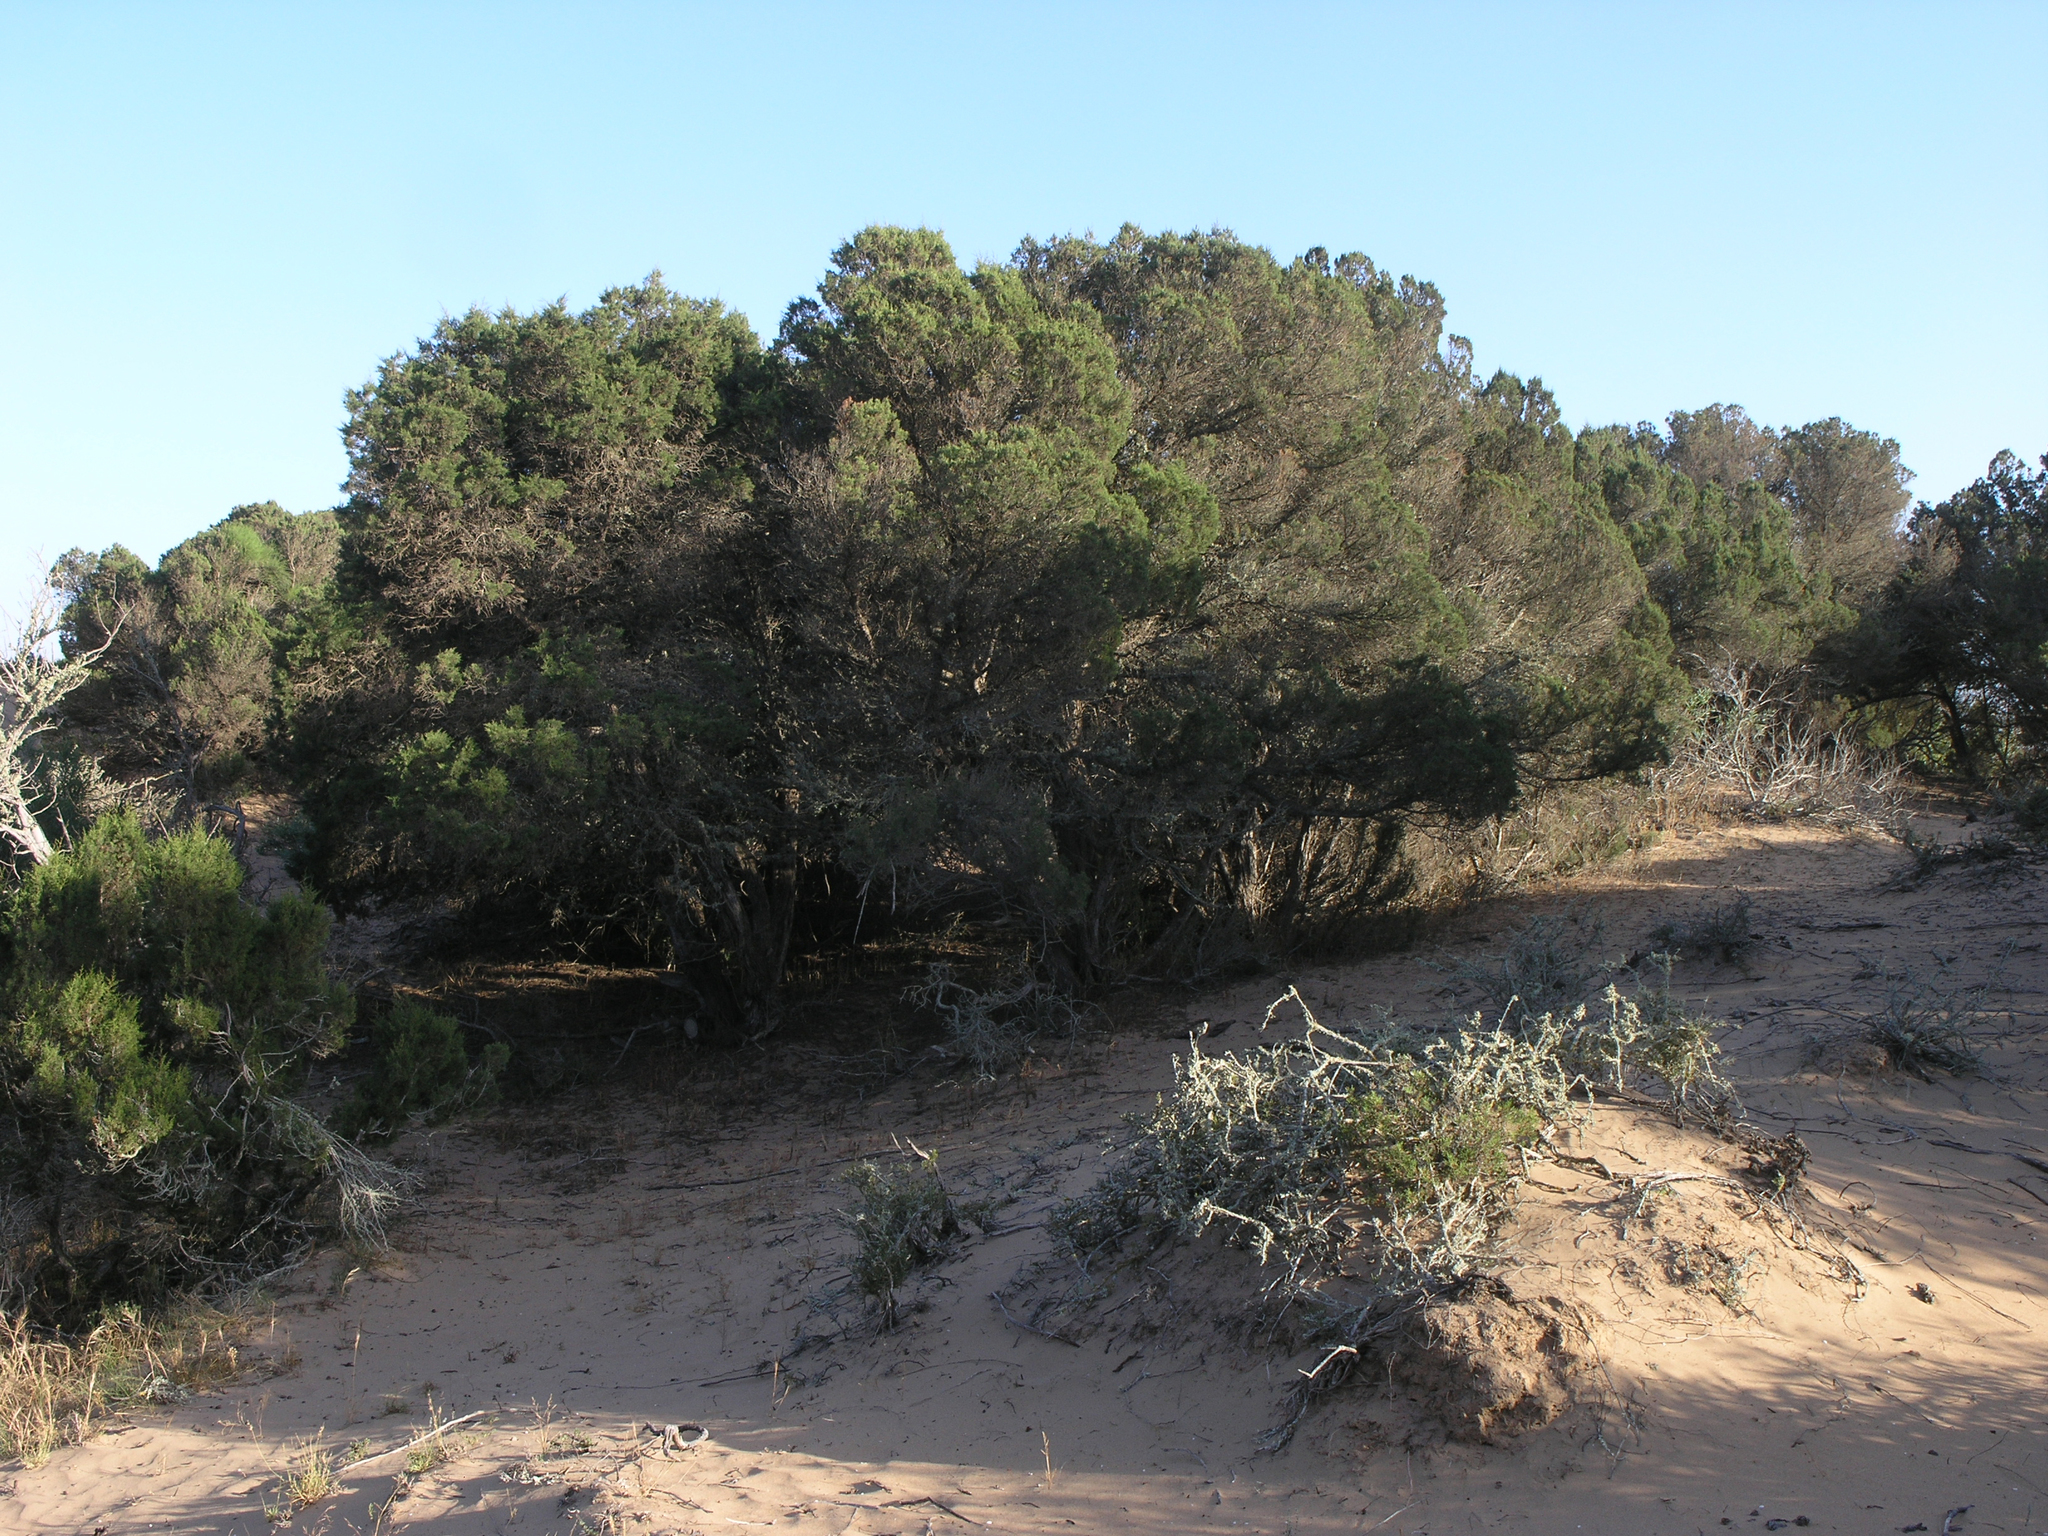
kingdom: Plantae
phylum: Tracheophyta
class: Pinopsida
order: Pinales
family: Cupressaceae
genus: Juniperus
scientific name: Juniperus phoenicea
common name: Phoenician juniper
